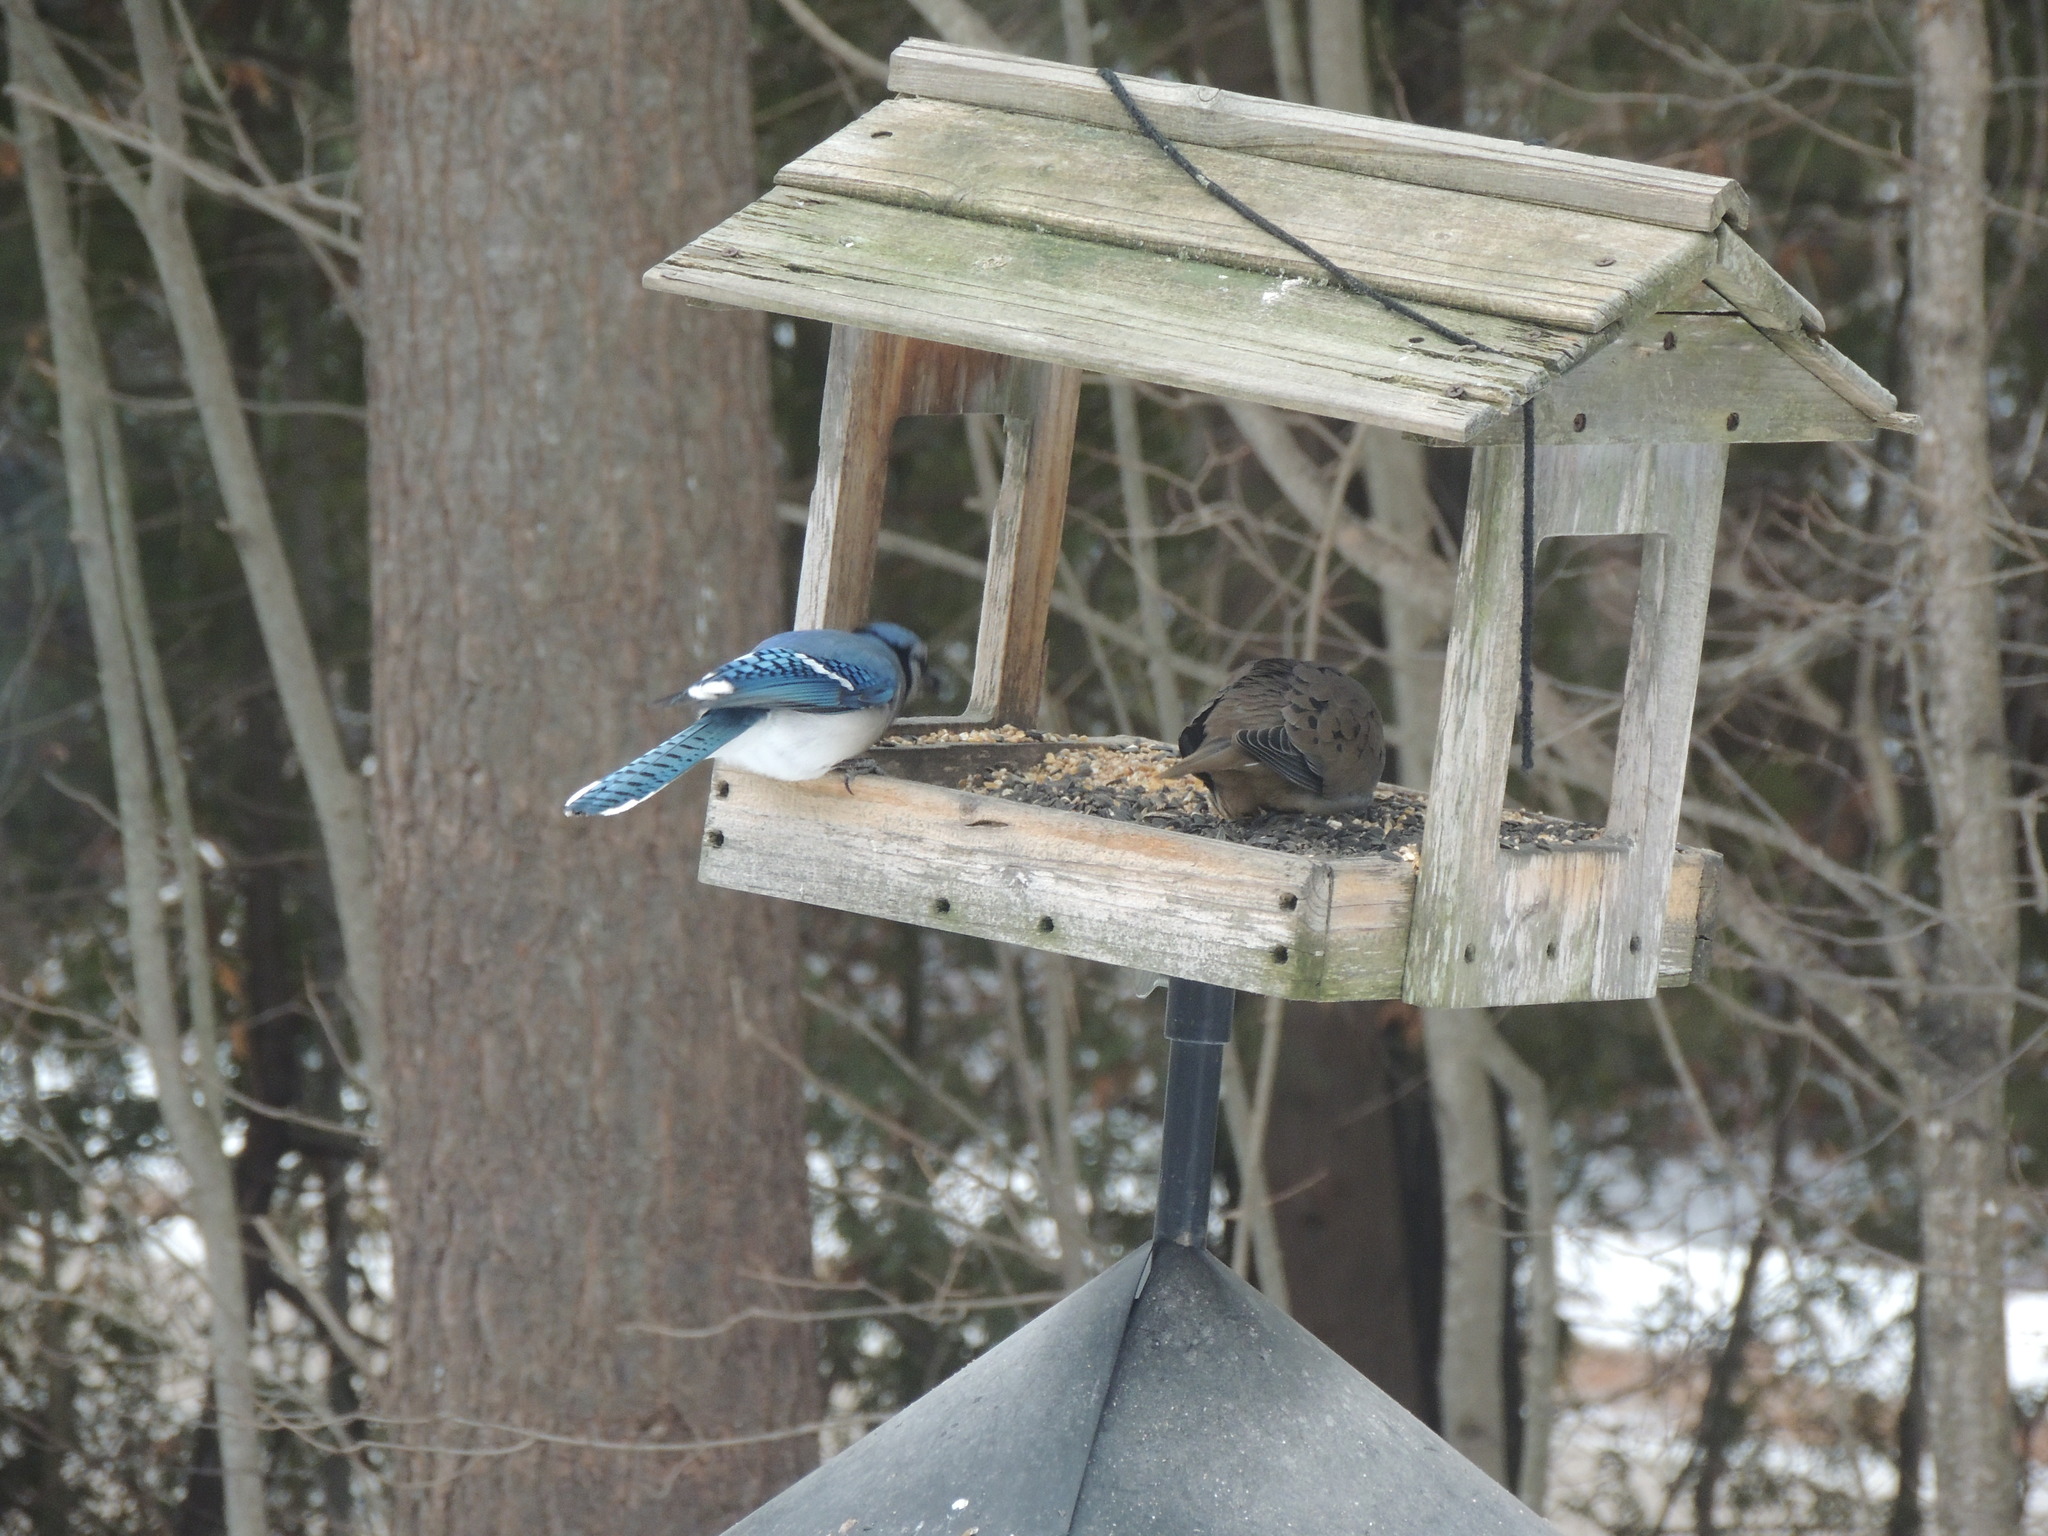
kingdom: Animalia
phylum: Chordata
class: Aves
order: Passeriformes
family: Corvidae
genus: Cyanocitta
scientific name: Cyanocitta cristata
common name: Blue jay
